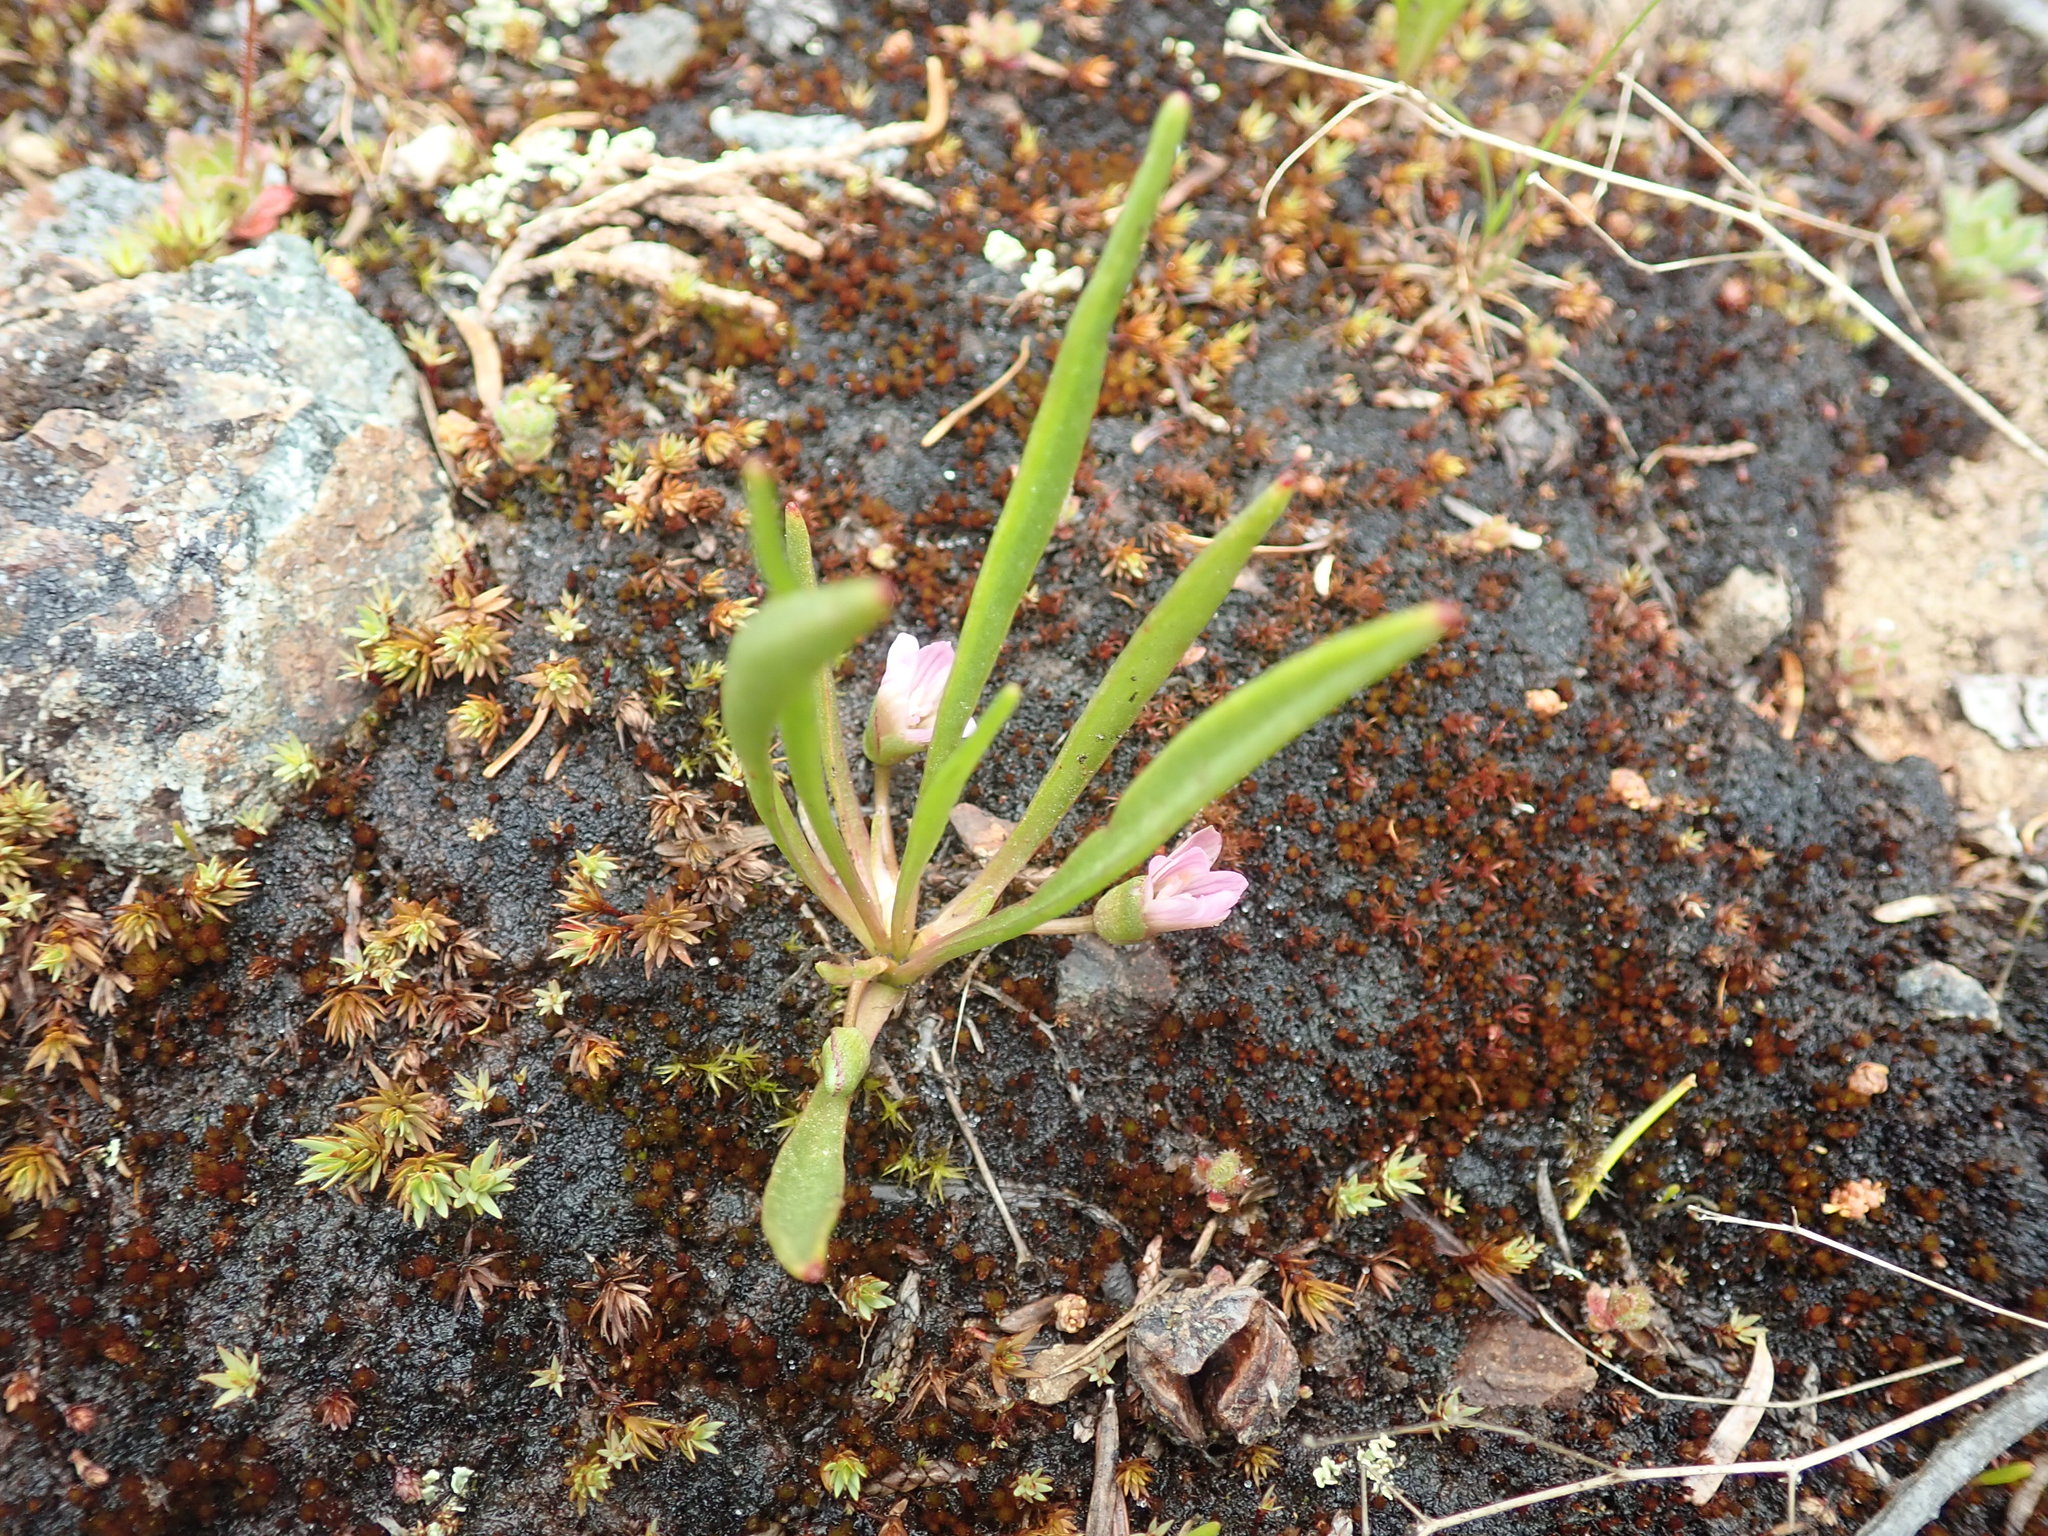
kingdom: Plantae
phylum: Tracheophyta
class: Magnoliopsida
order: Caryophyllales
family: Montiaceae
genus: Lewisia
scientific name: Lewisia pygmaea
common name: Alpine bitterroot
